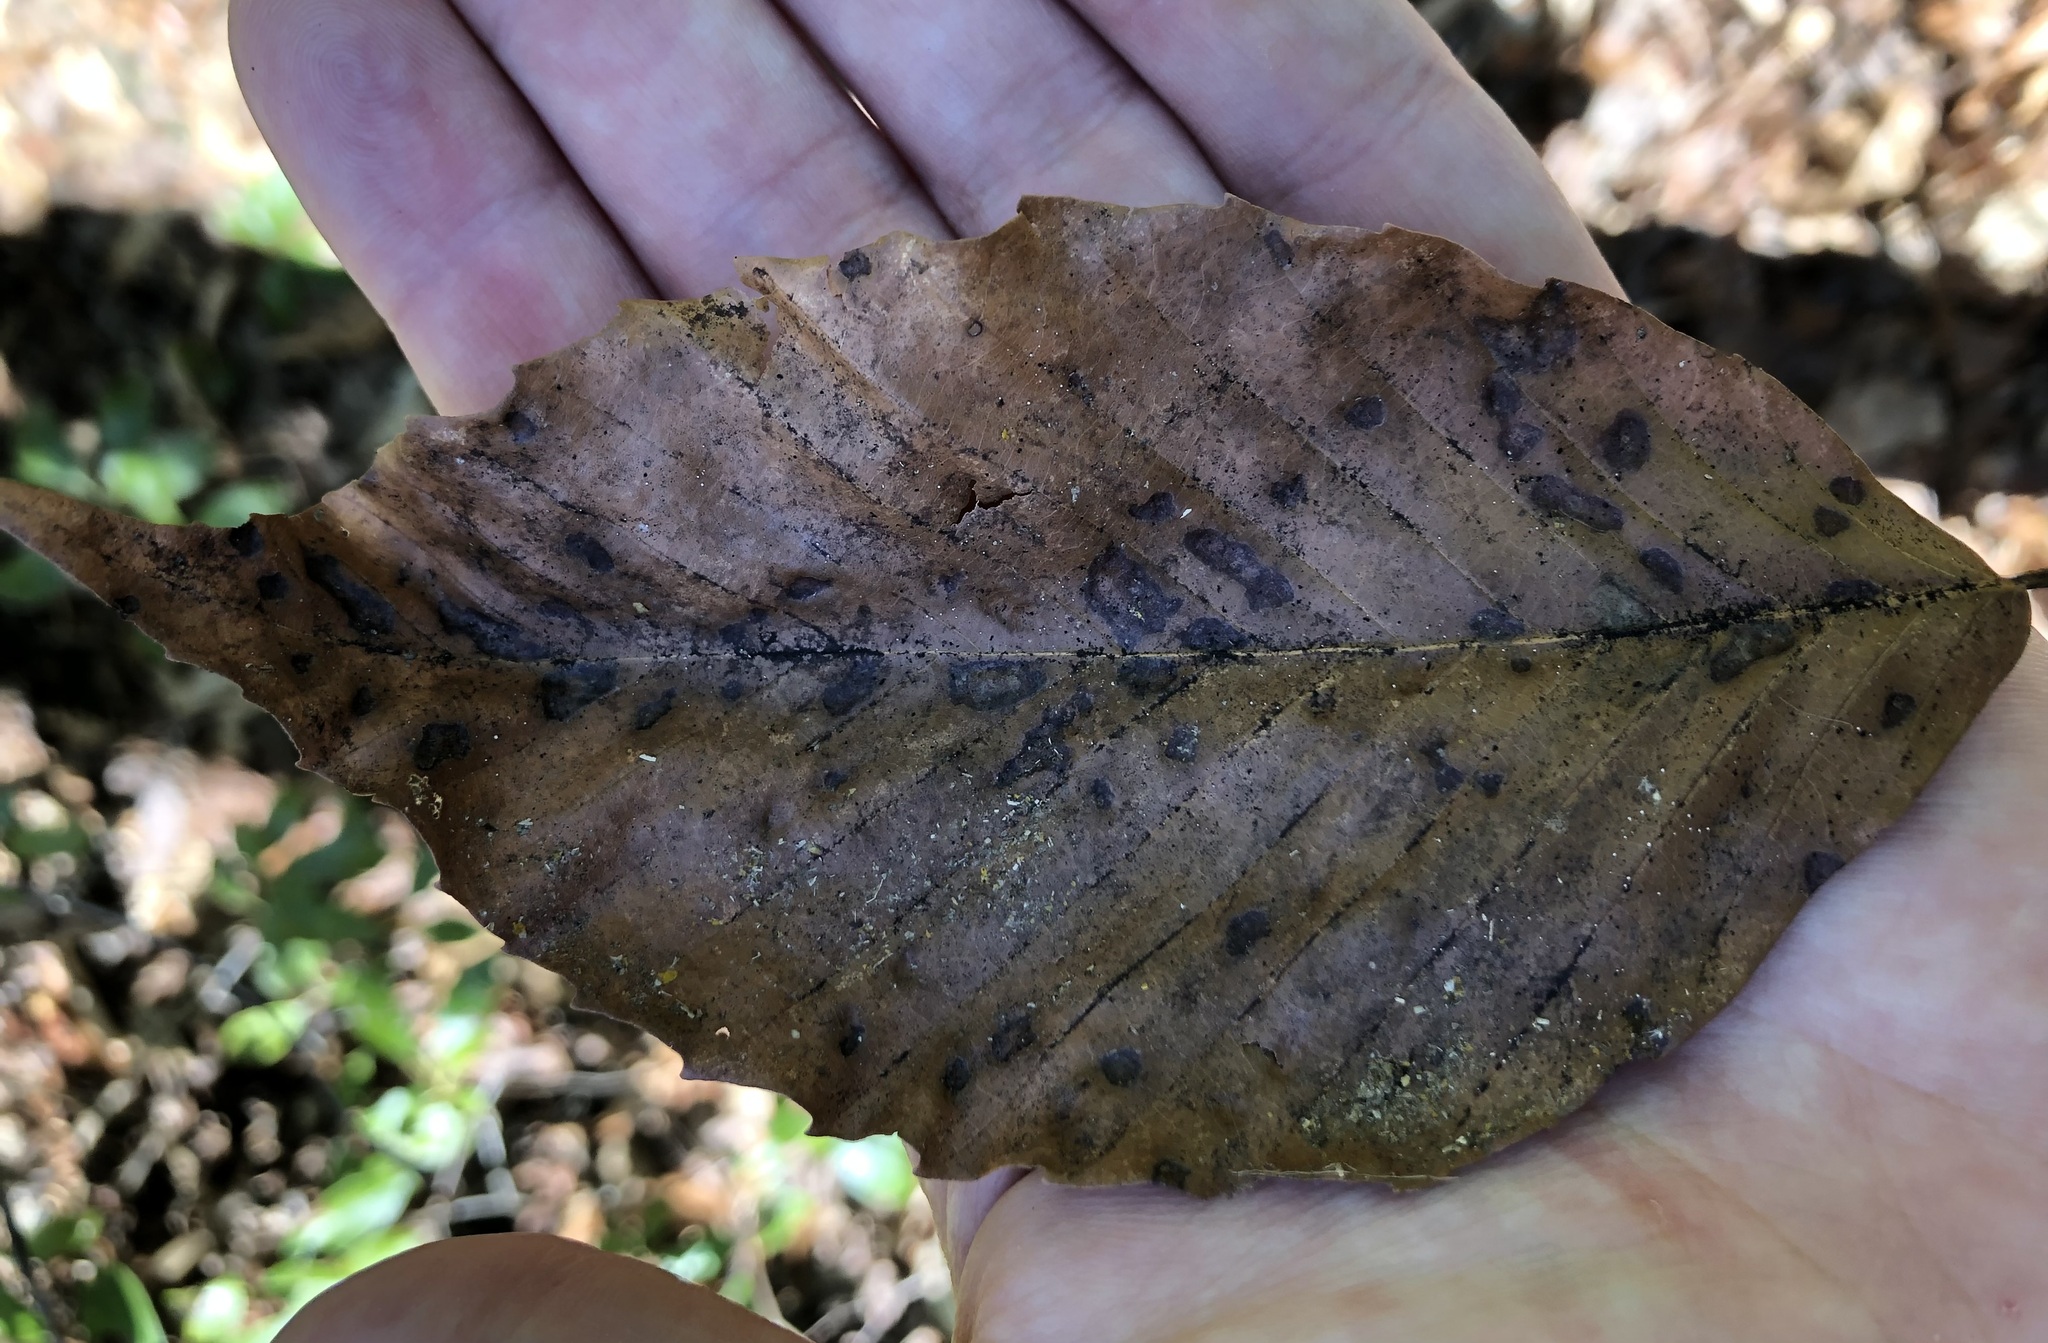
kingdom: Animalia
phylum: Arthropoda
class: Arachnida
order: Trombidiformes
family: Eriophyidae
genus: Acalitus
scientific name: Acalitus
